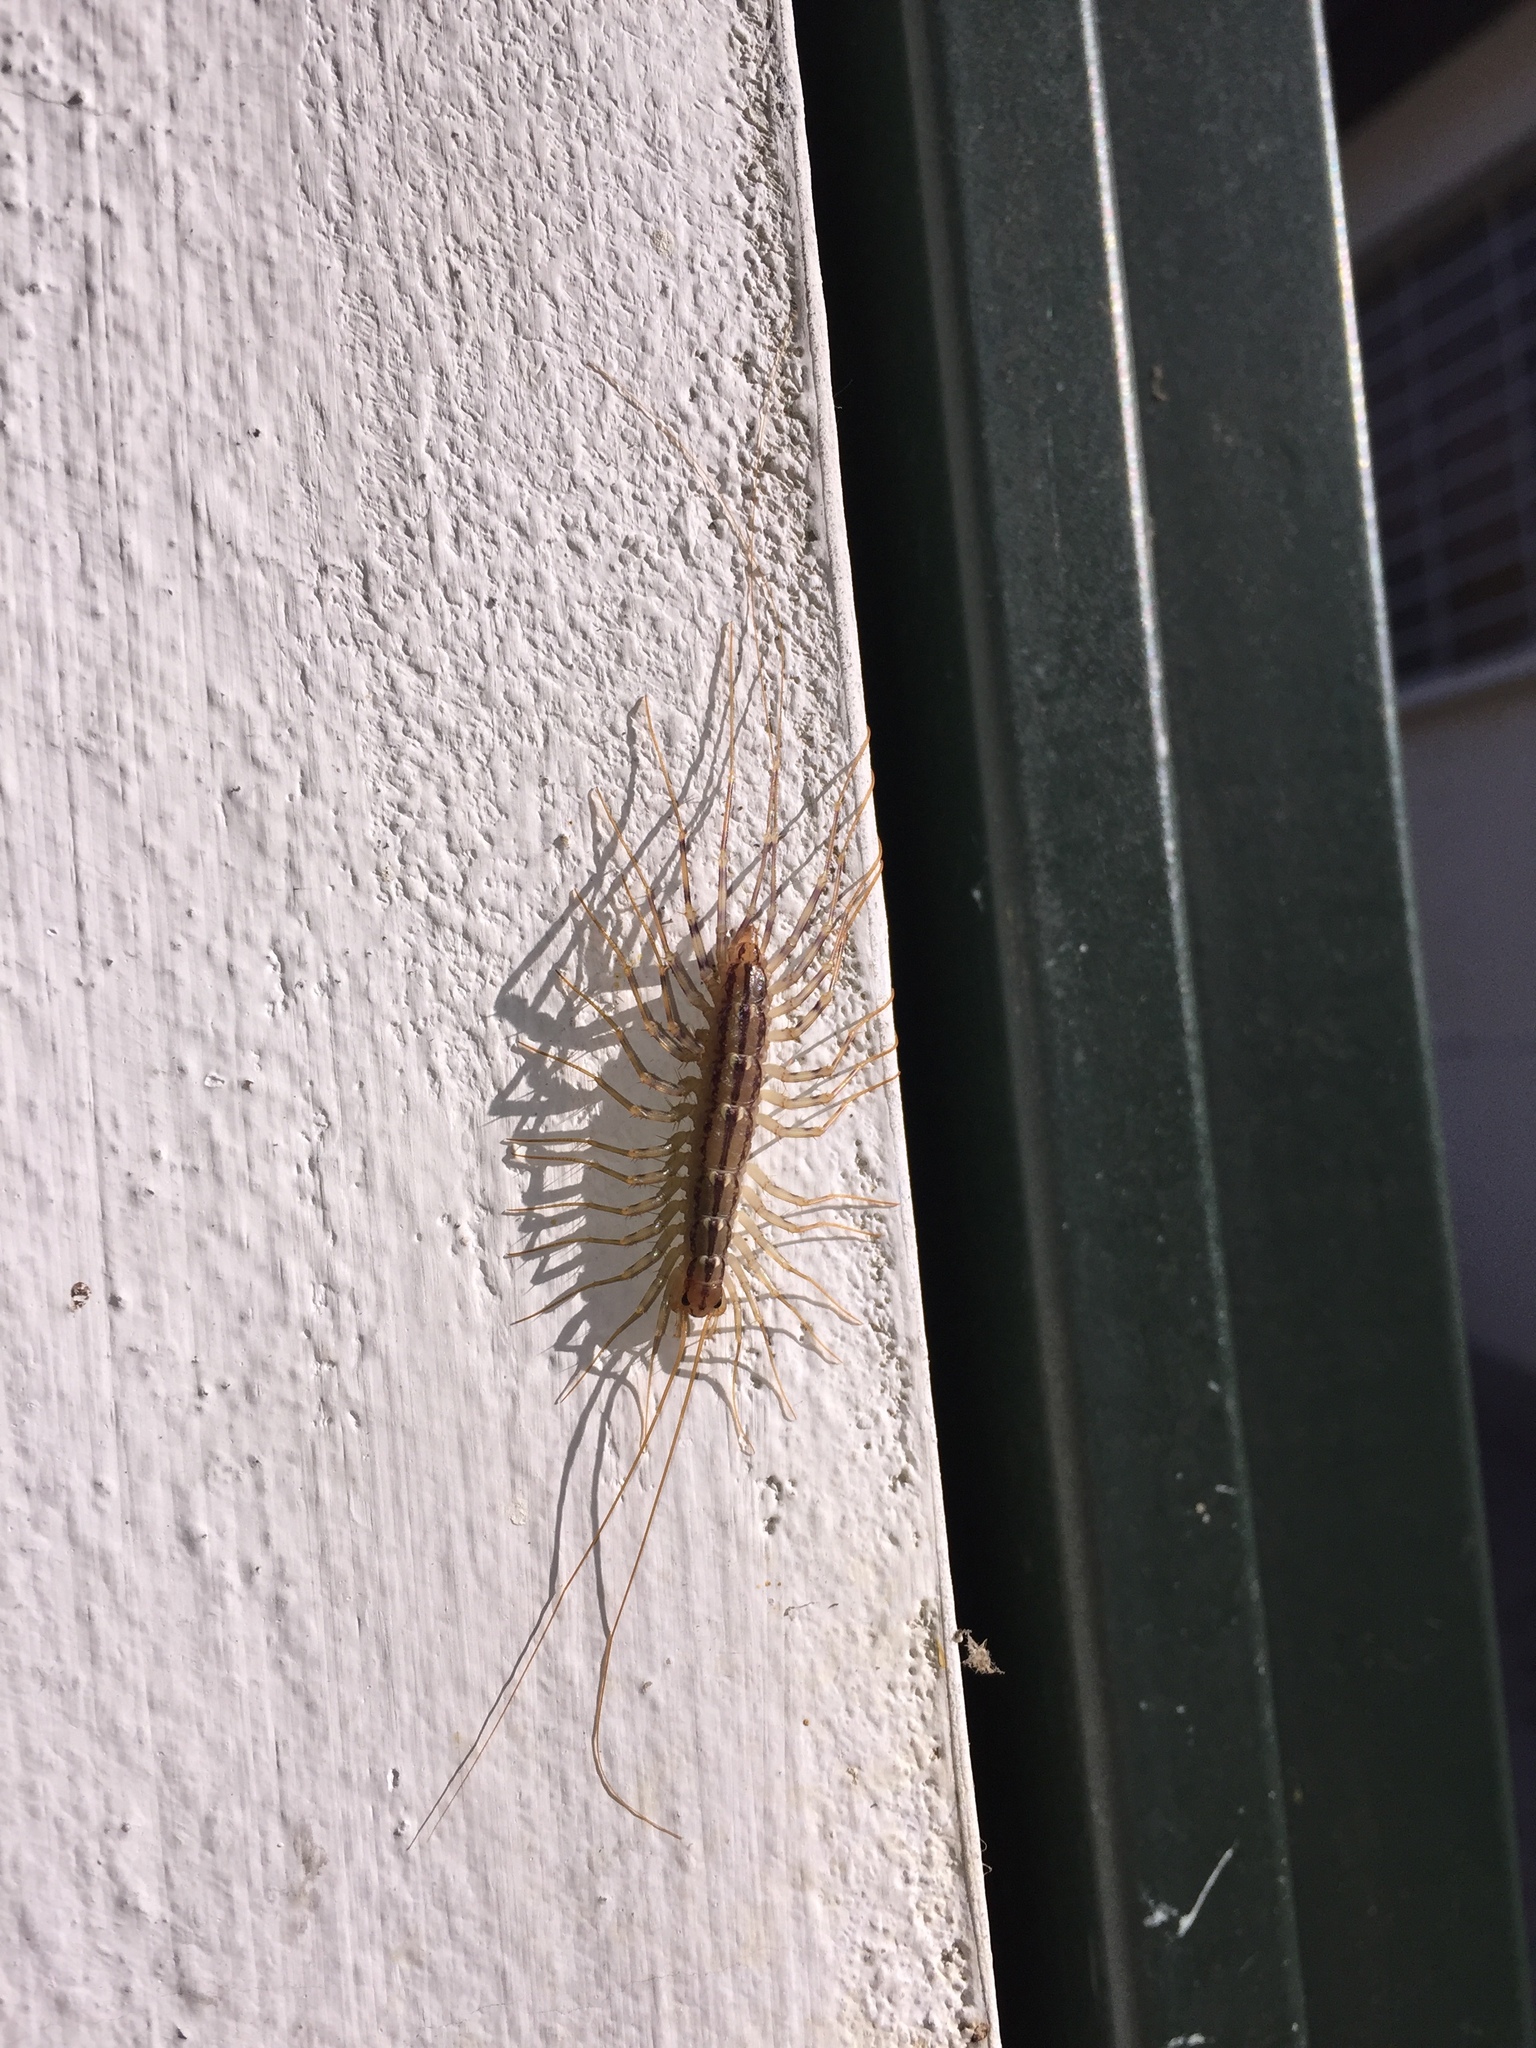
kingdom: Animalia
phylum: Arthropoda
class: Chilopoda
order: Scutigeromorpha
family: Scutigeridae
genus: Scutigera
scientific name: Scutigera coleoptrata
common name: House centipede
